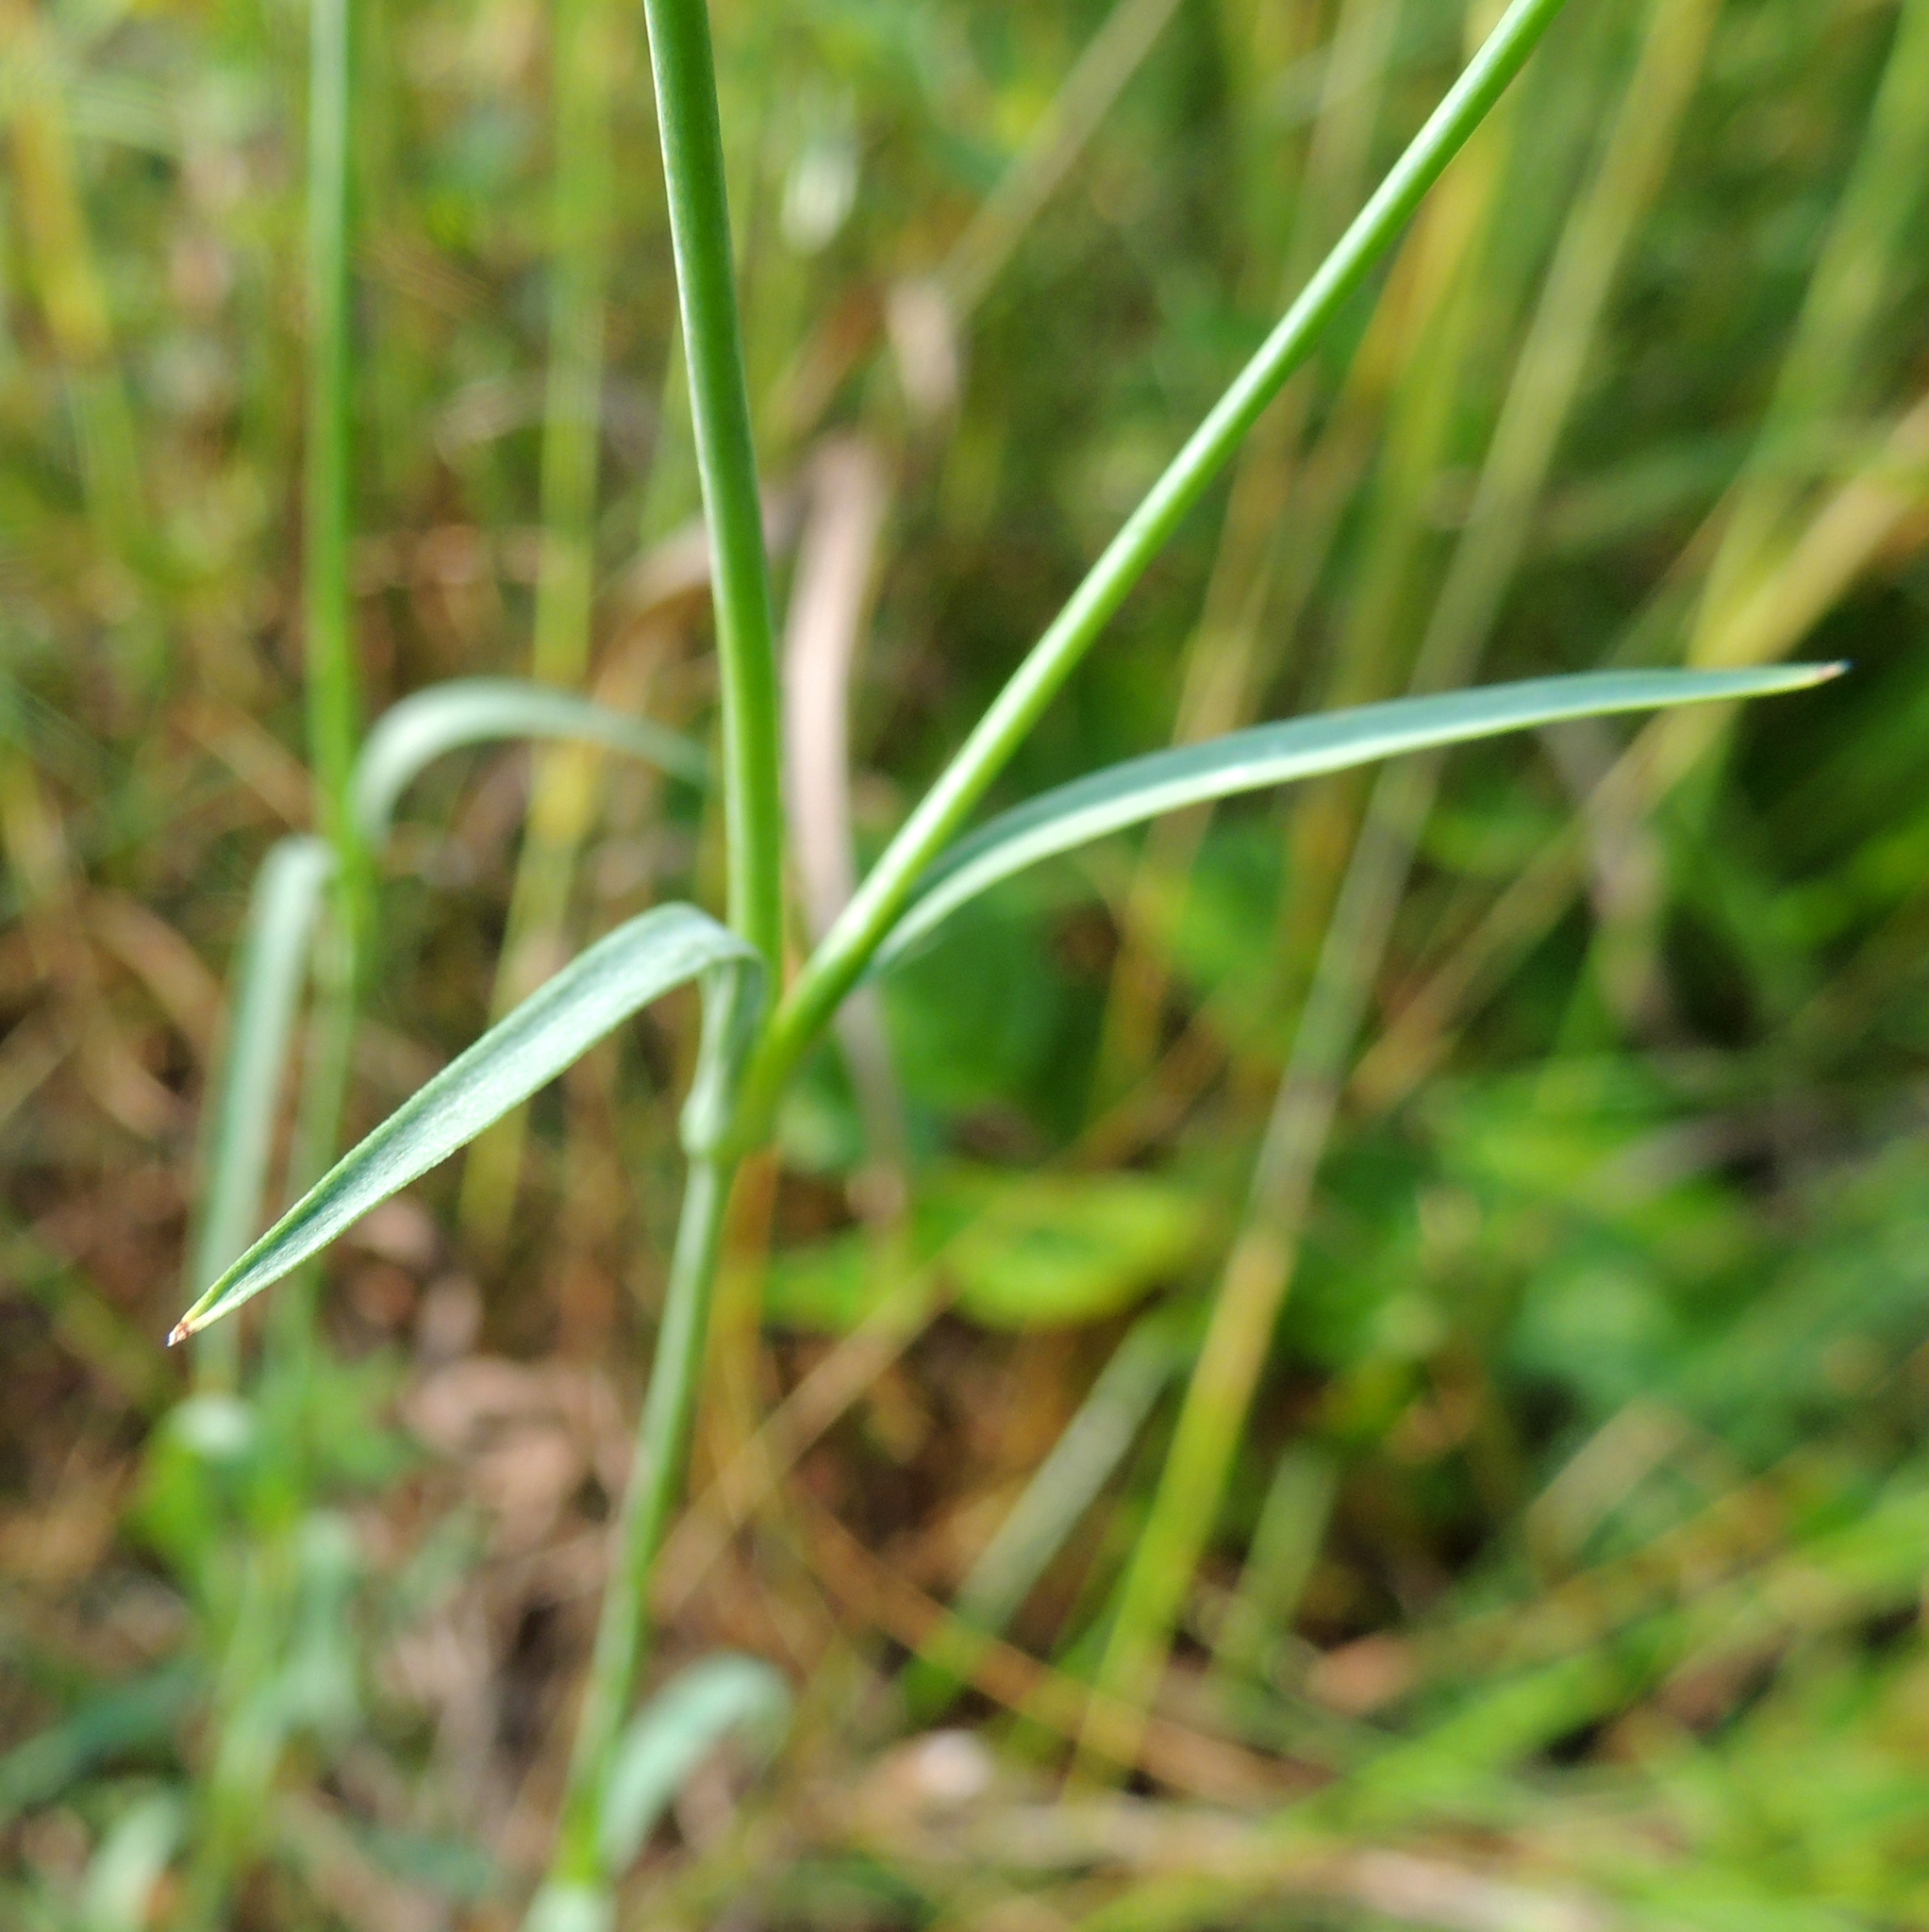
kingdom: Plantae
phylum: Tracheophyta
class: Magnoliopsida
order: Caryophyllales
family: Caryophyllaceae
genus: Dianthus
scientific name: Dianthus superbus
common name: Fringed pink
